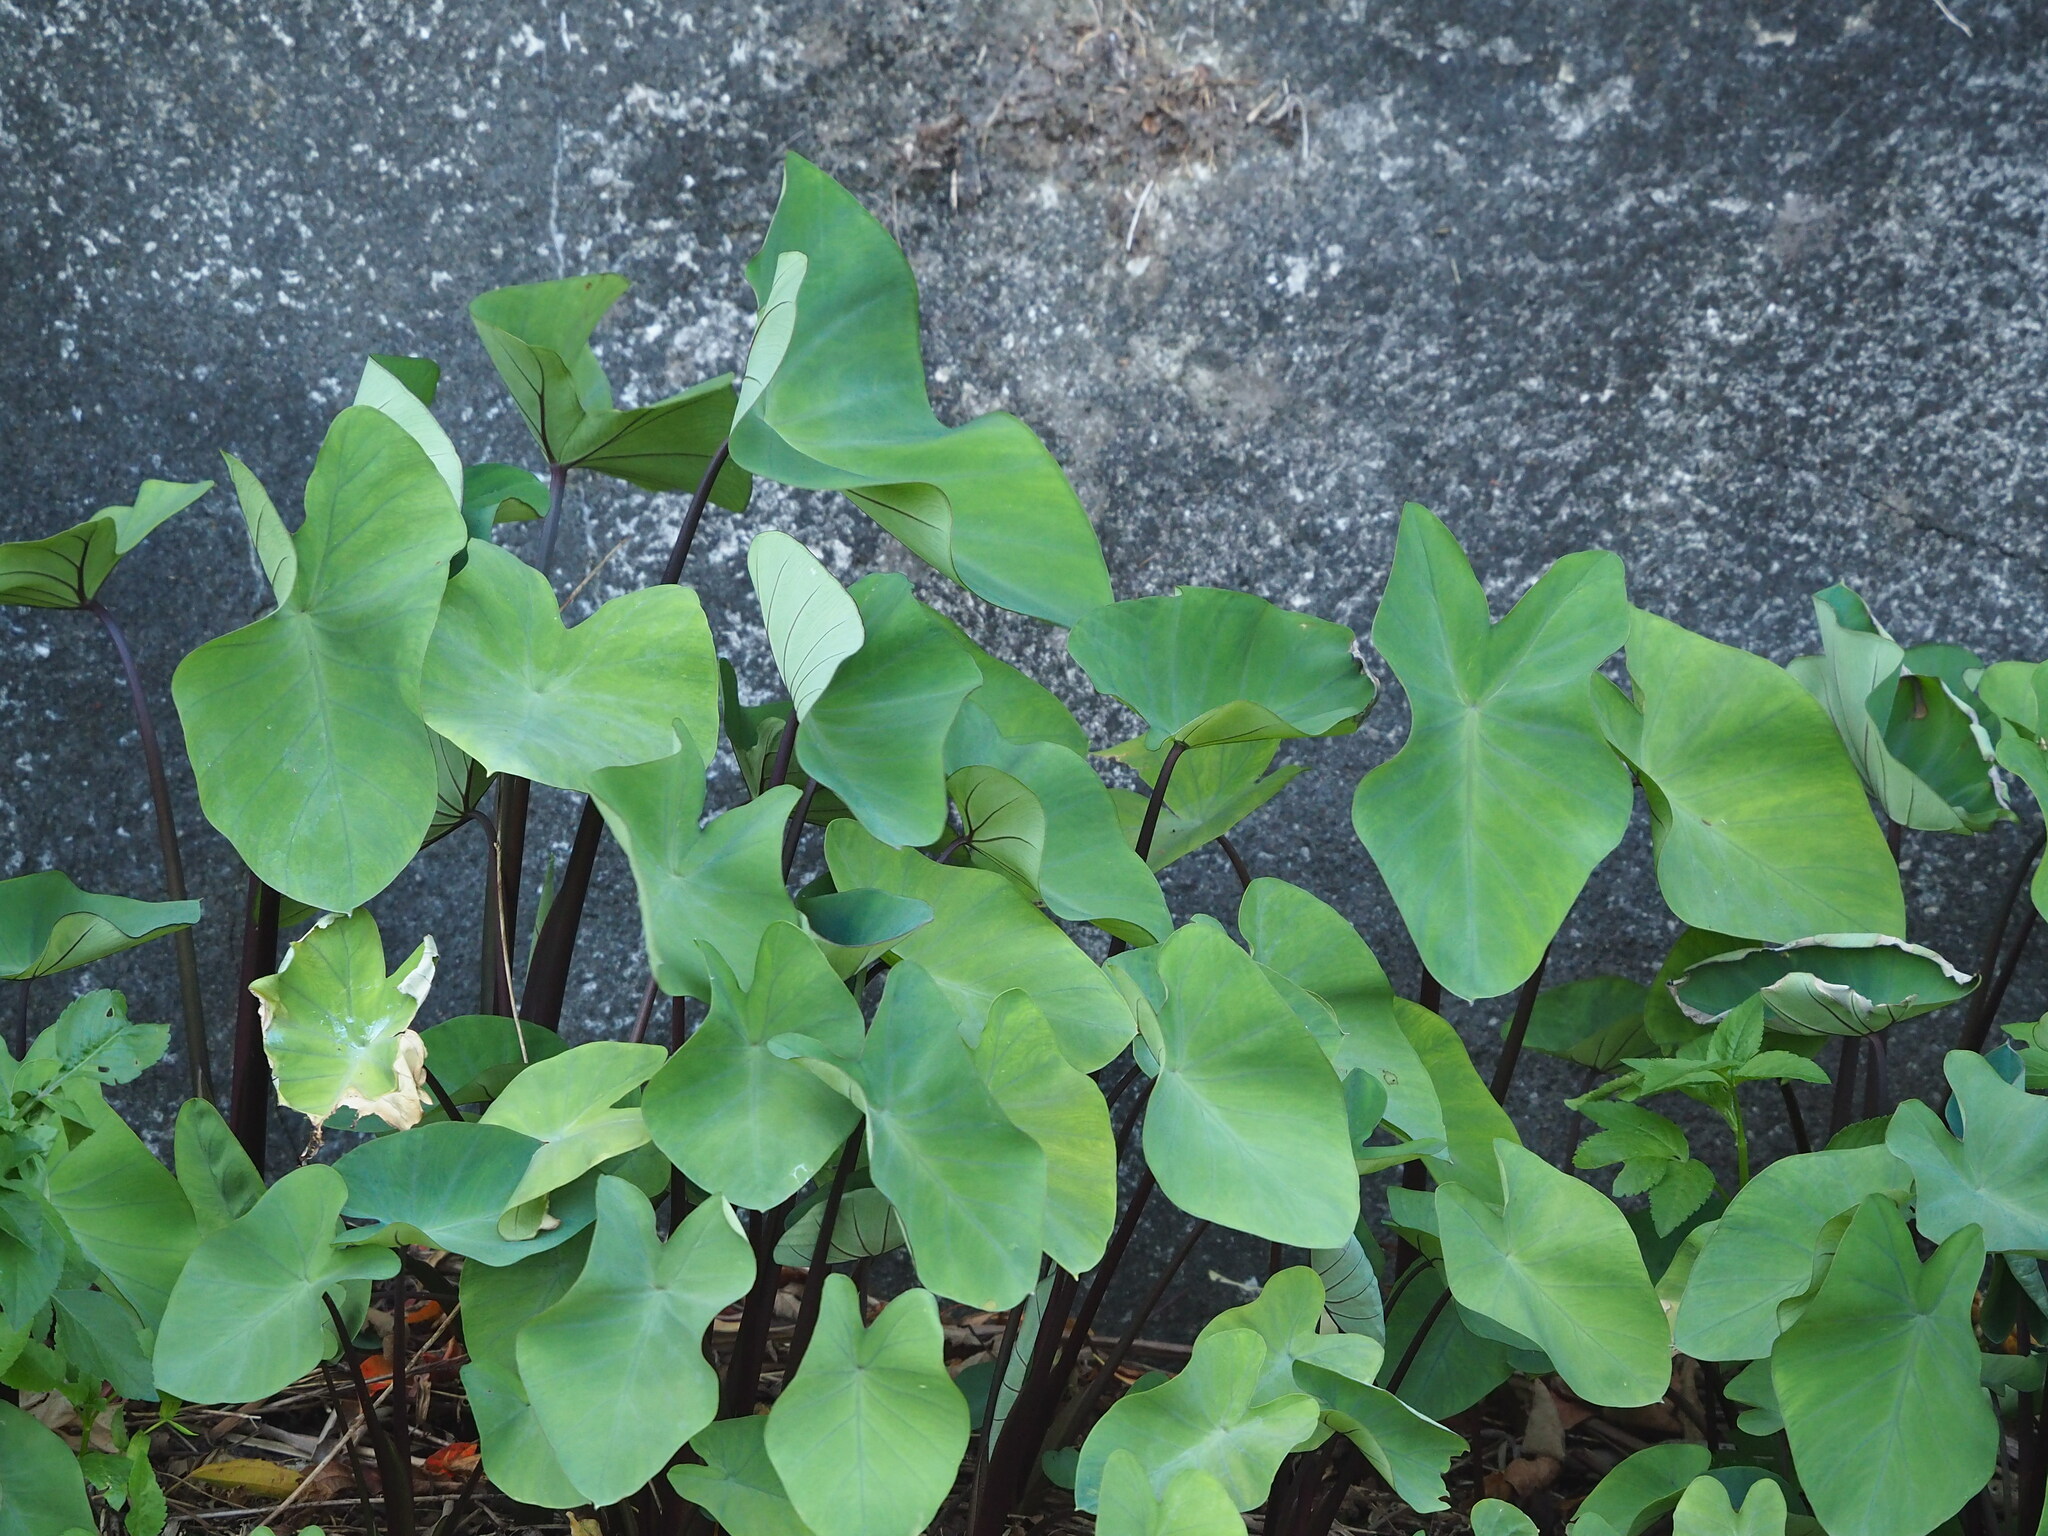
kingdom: Plantae
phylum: Tracheophyta
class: Liliopsida
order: Alismatales
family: Araceae
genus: Colocasia
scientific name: Colocasia esculenta
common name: Taro
